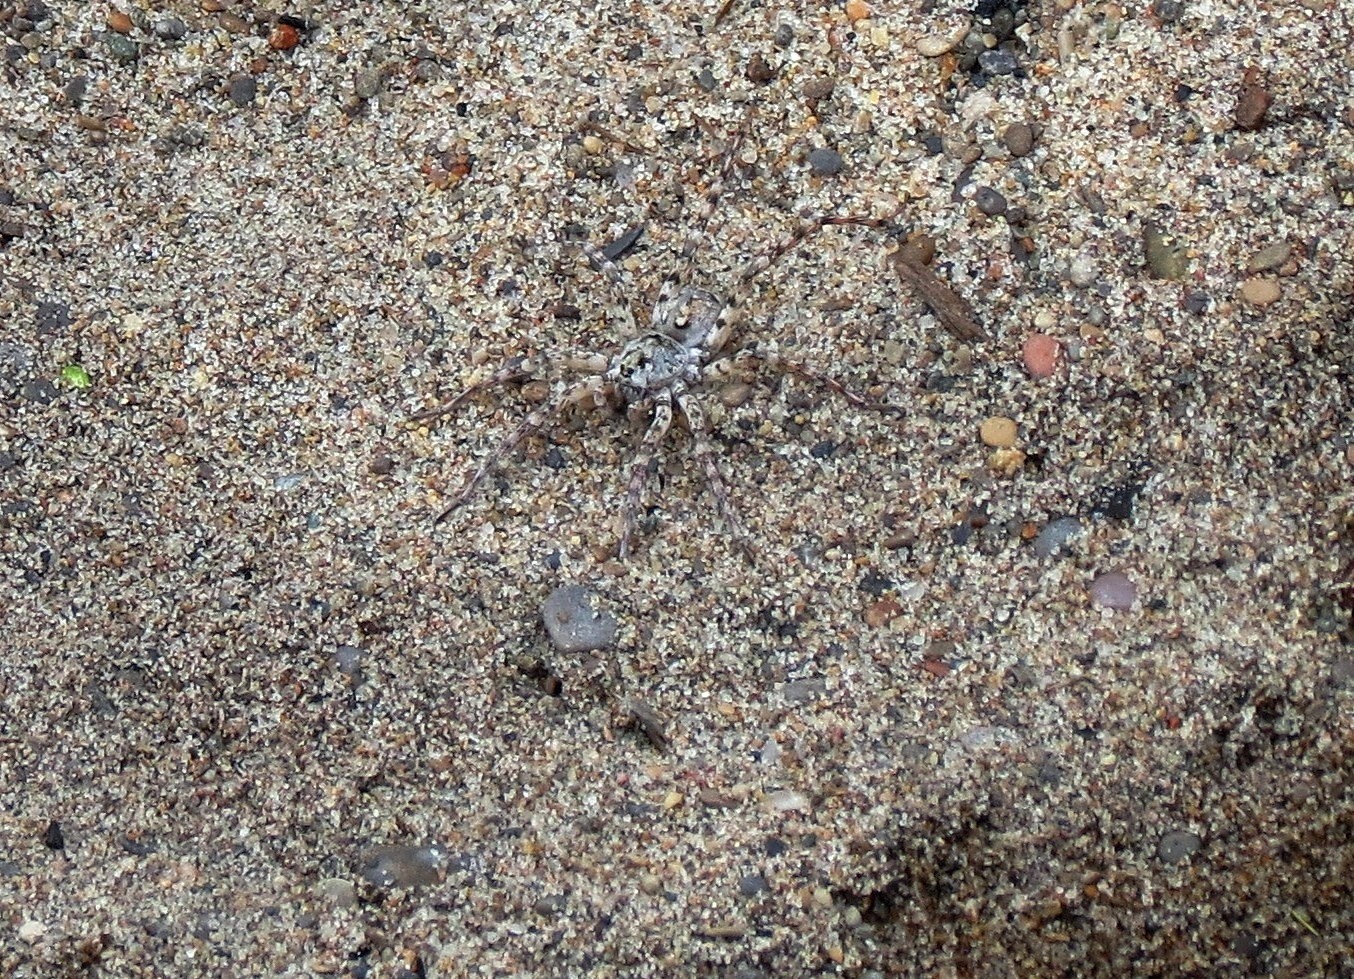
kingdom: Animalia
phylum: Arthropoda
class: Arachnida
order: Araneae
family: Lycosidae
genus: Arctosa
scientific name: Arctosa littoralis
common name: Wolf spiders
